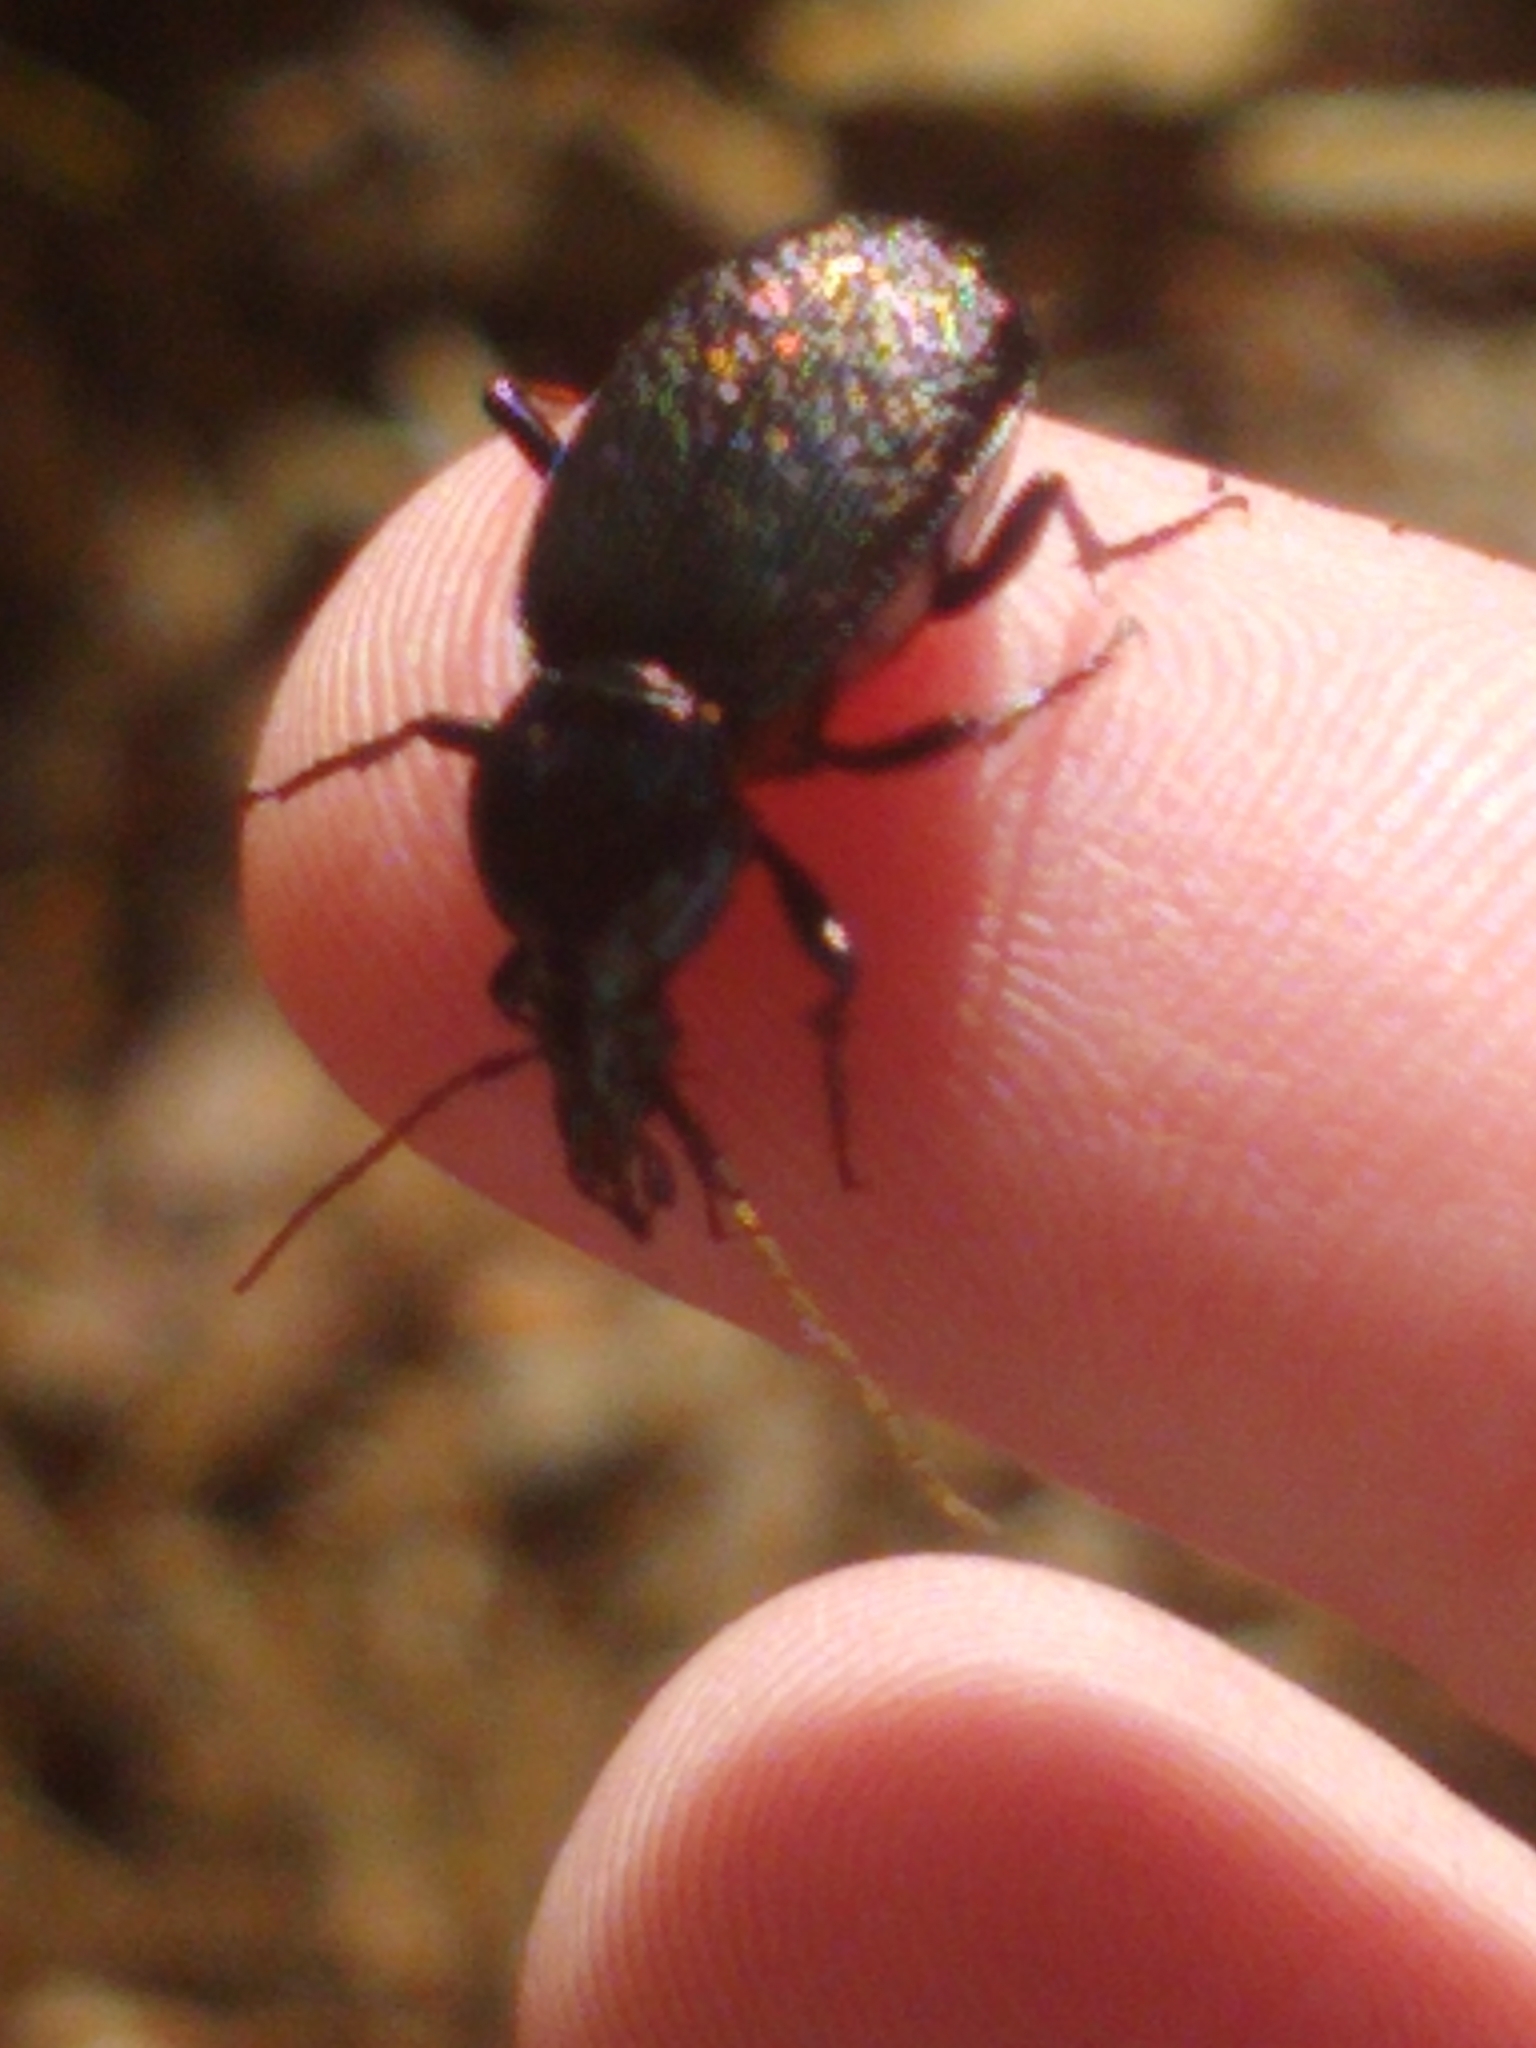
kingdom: Animalia
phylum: Arthropoda
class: Insecta
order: Coleoptera
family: Carabidae
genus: Sphaeroderus
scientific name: Sphaeroderus nitidicollis
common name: Polished snail-eating beetle
